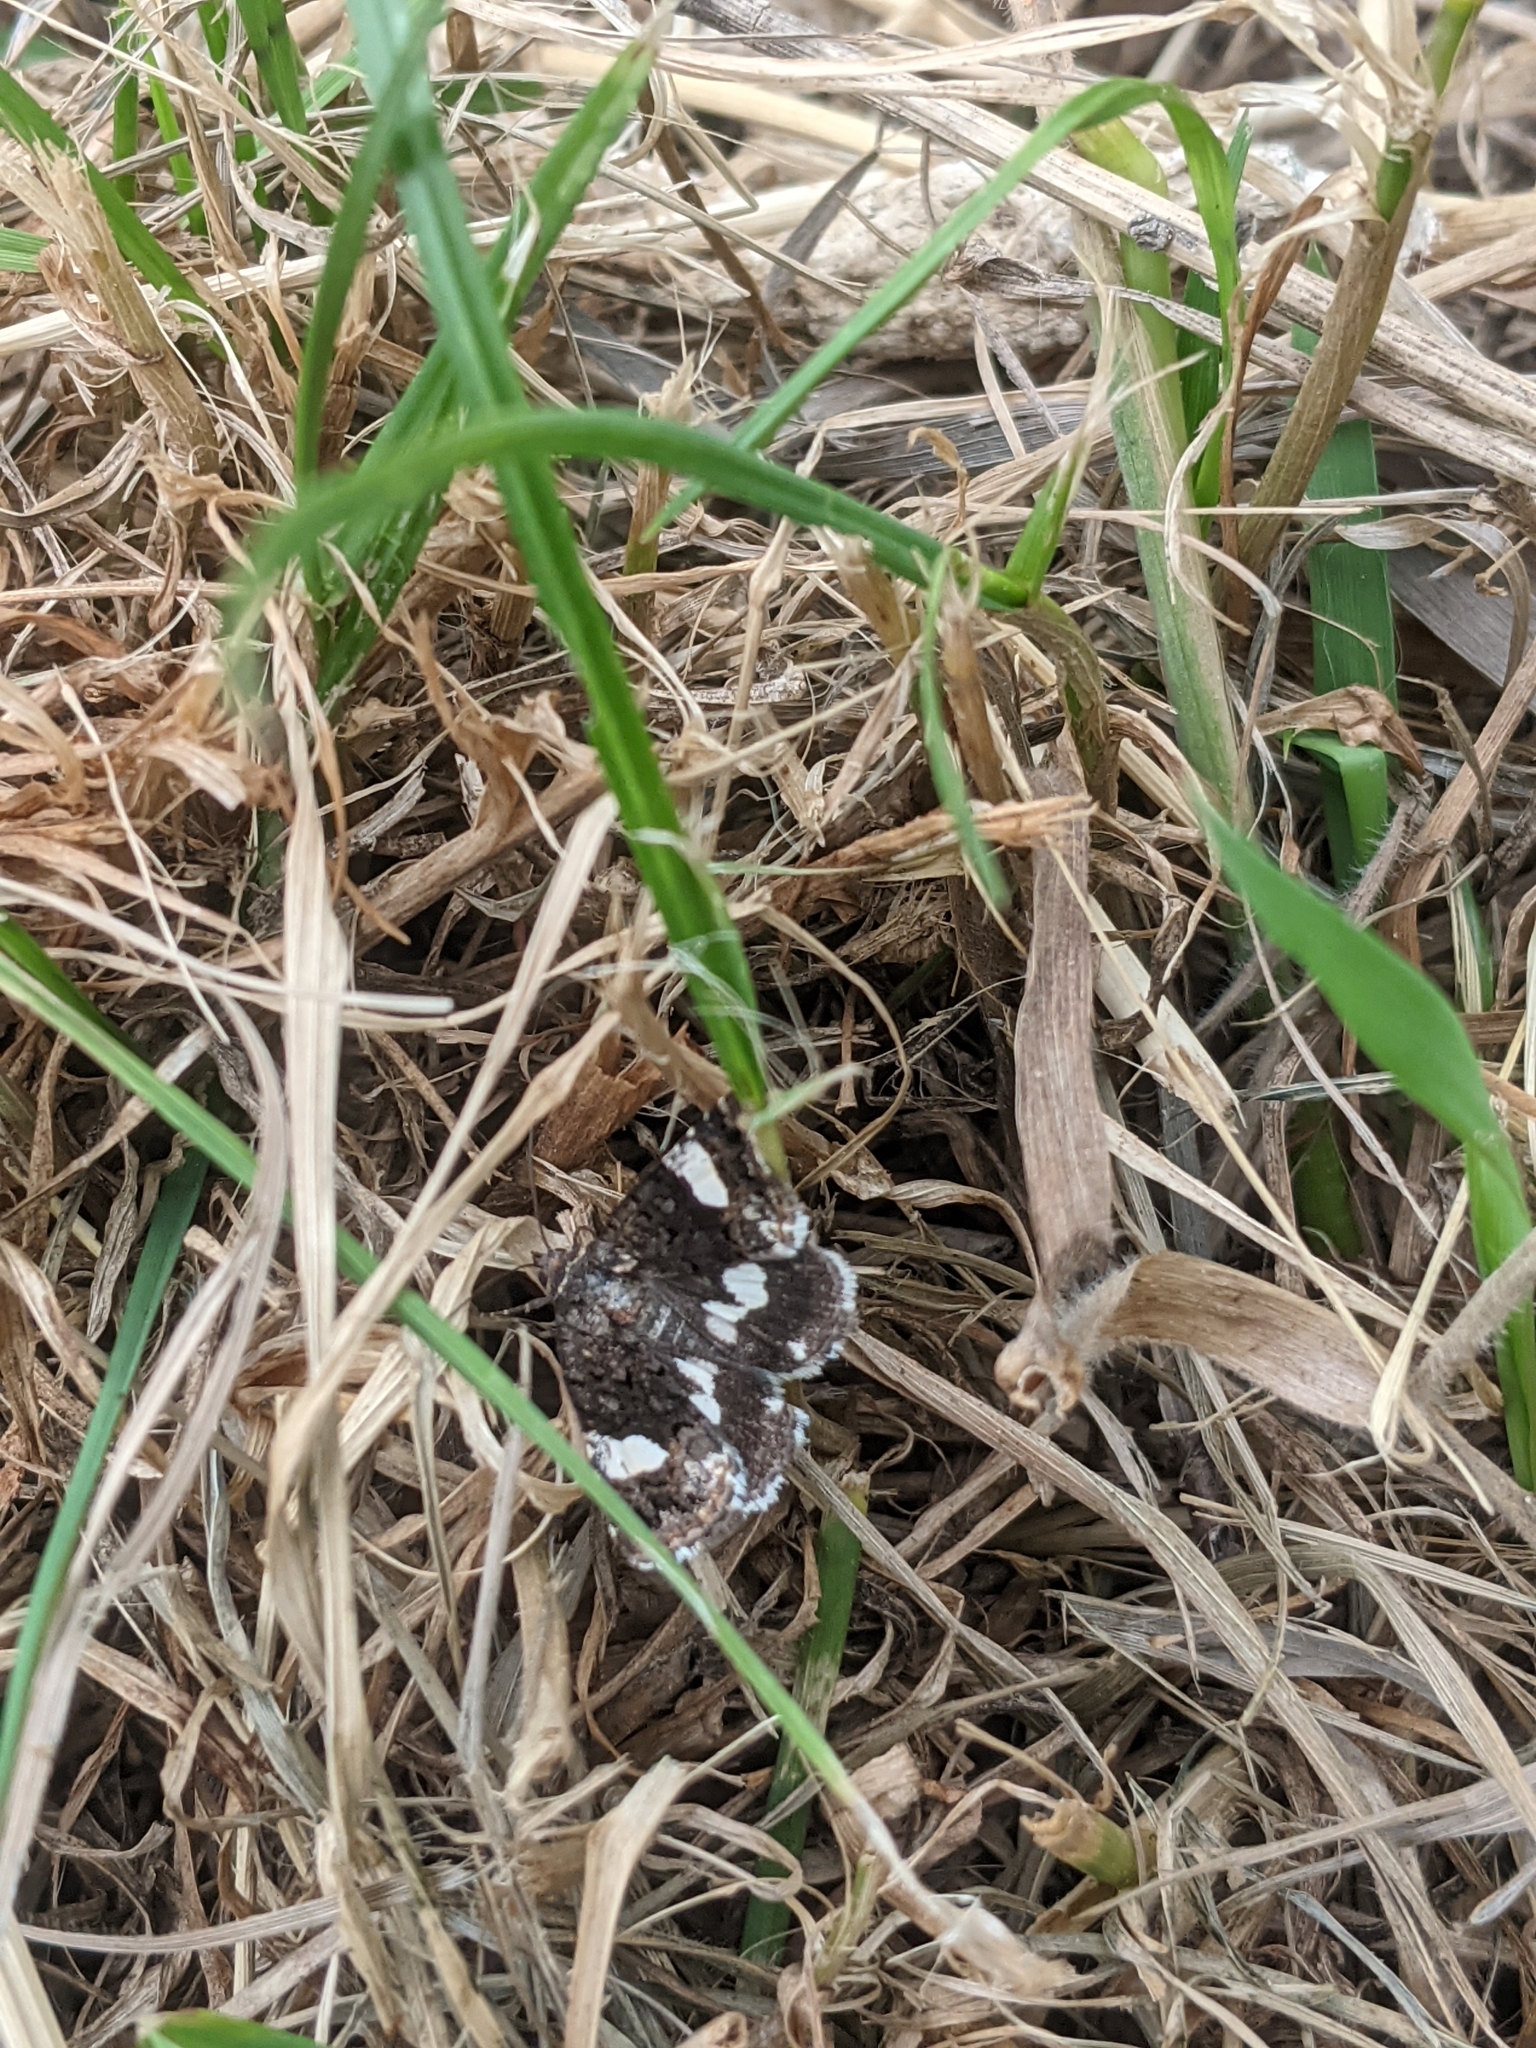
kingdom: Animalia
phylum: Arthropoda
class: Insecta
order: Lepidoptera
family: Erebidae
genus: Tyta
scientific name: Tyta luctuosa
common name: Four-spotted
